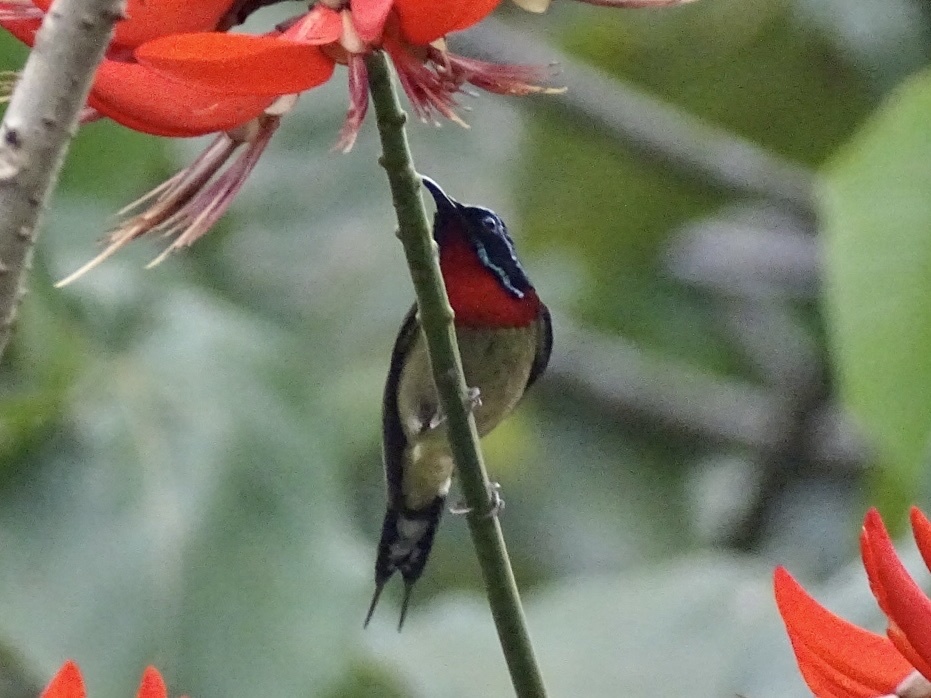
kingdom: Animalia
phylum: Chordata
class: Aves
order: Passeriformes
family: Nectariniidae
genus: Aethopyga
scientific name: Aethopyga christinae
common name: Fork-tailed sunbird
